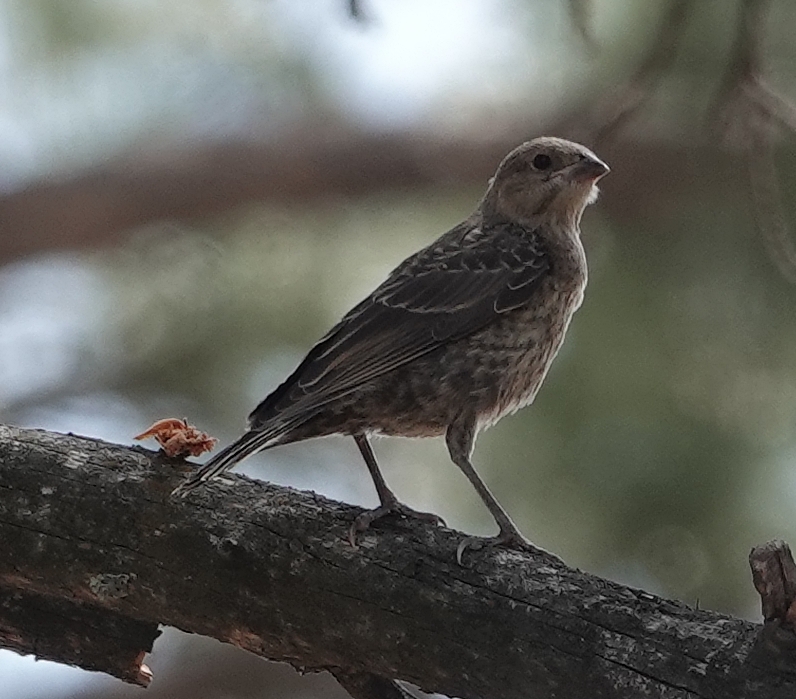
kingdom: Animalia
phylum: Chordata
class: Aves
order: Passeriformes
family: Icteridae
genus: Molothrus
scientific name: Molothrus ater
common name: Brown-headed cowbird
